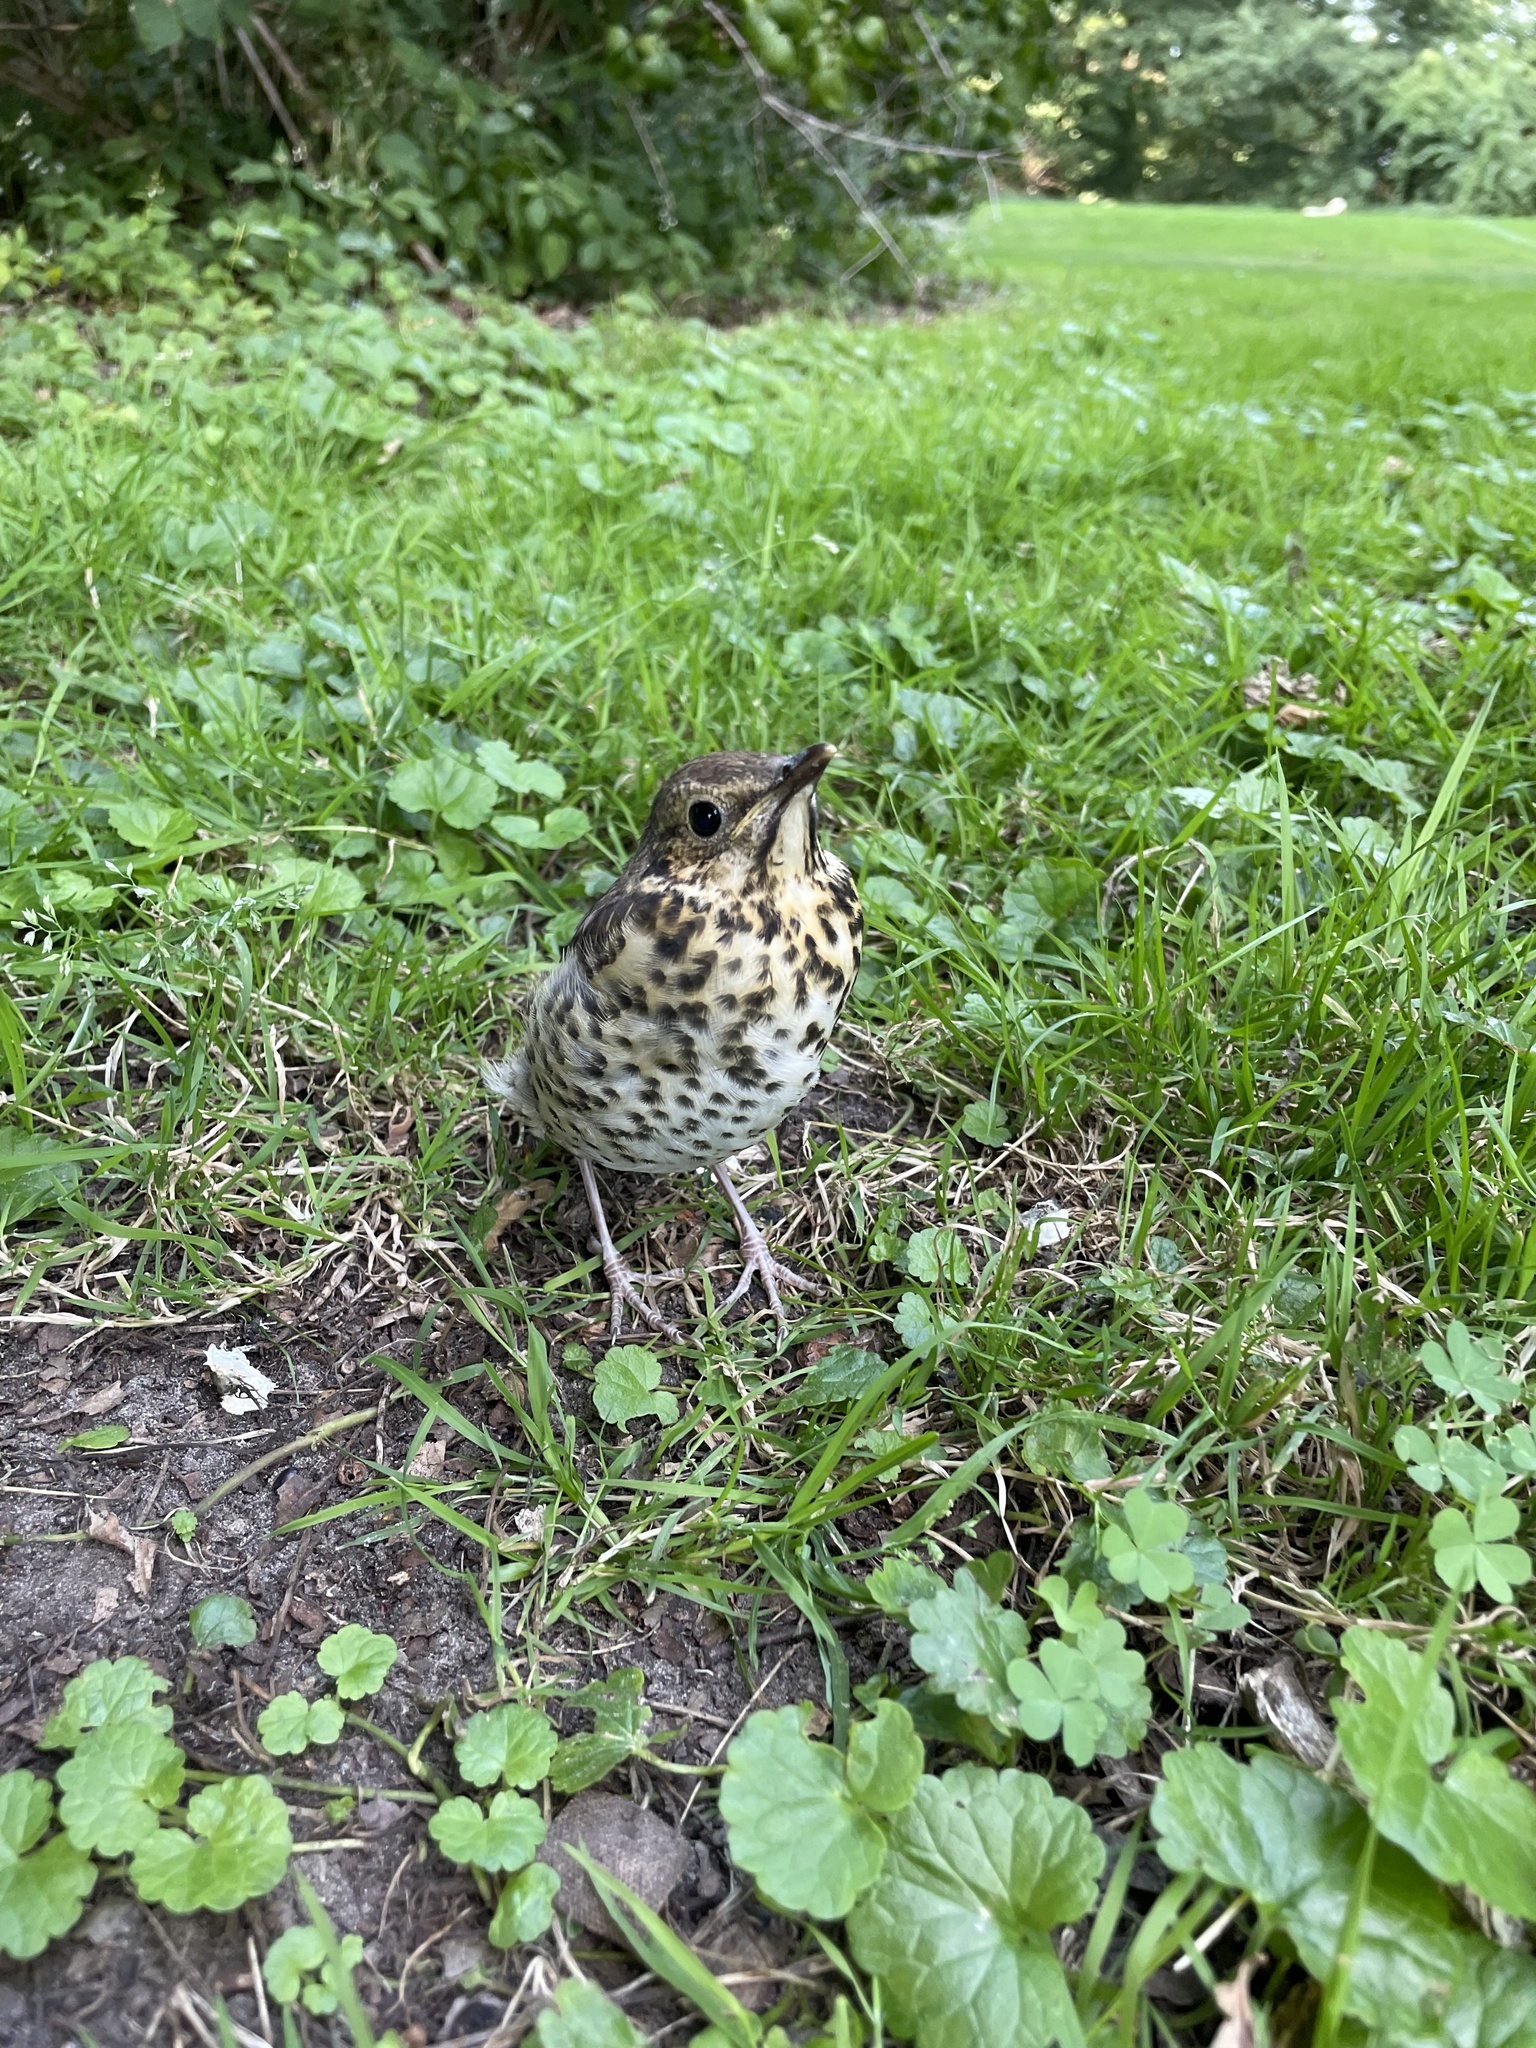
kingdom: Animalia
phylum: Chordata
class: Aves
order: Passeriformes
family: Turdidae
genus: Turdus
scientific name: Turdus philomelos
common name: Song thrush
